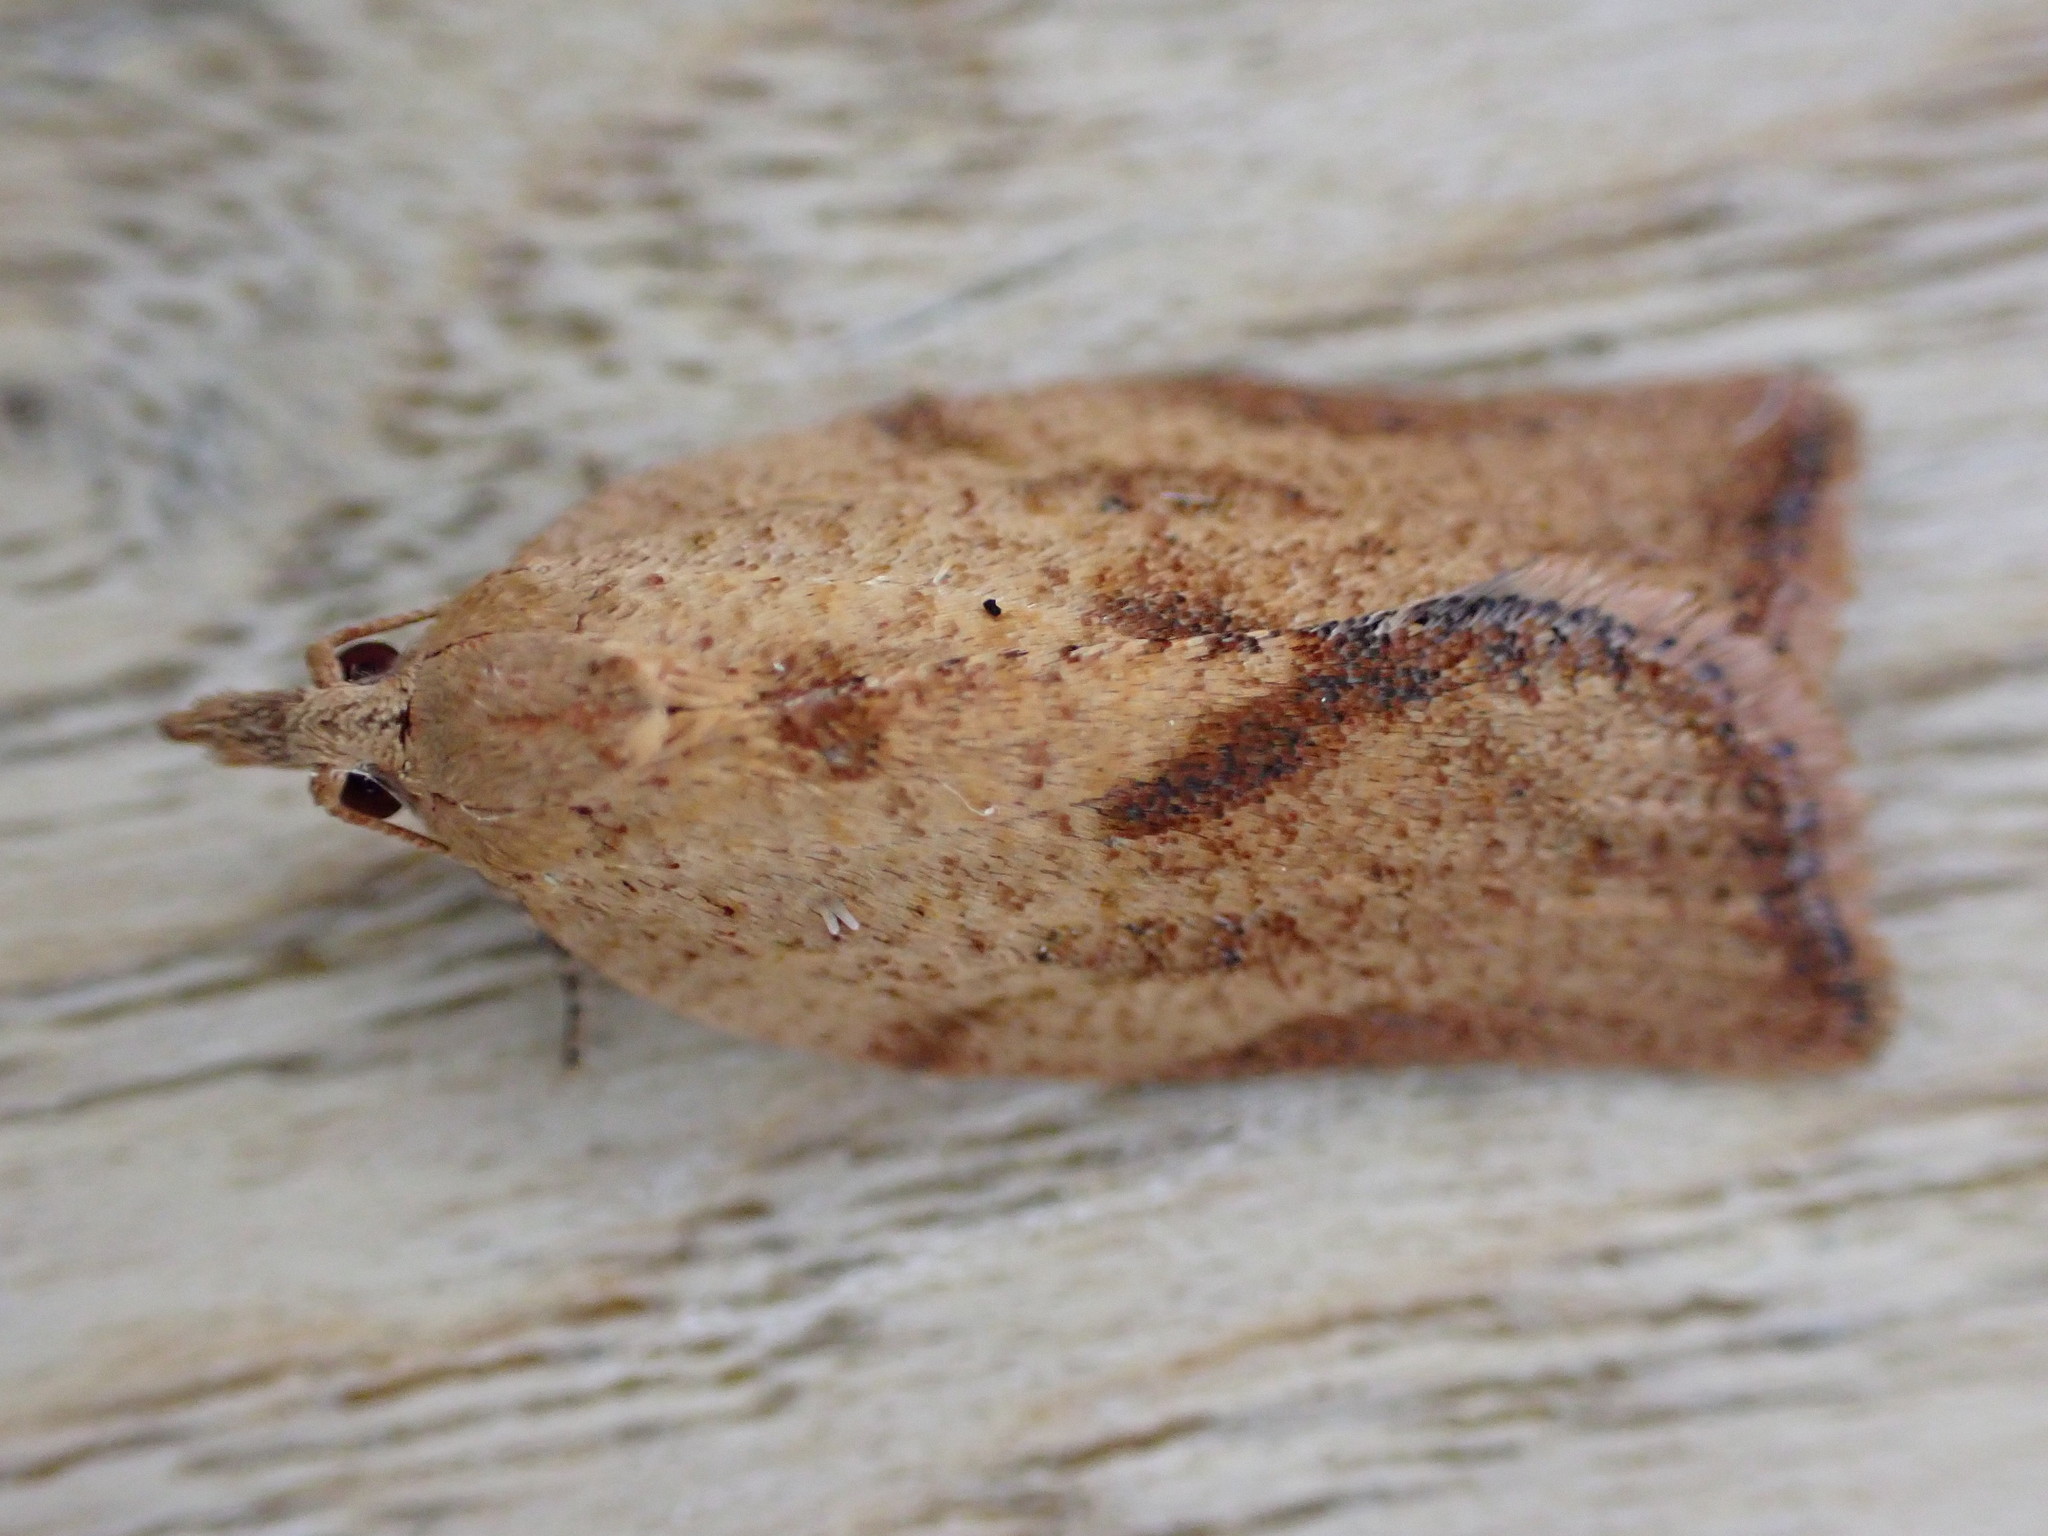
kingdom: Animalia
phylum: Arthropoda
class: Insecta
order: Lepidoptera
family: Tortricidae
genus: Epiphyas
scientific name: Epiphyas postvittana
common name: Light brown apple moth
